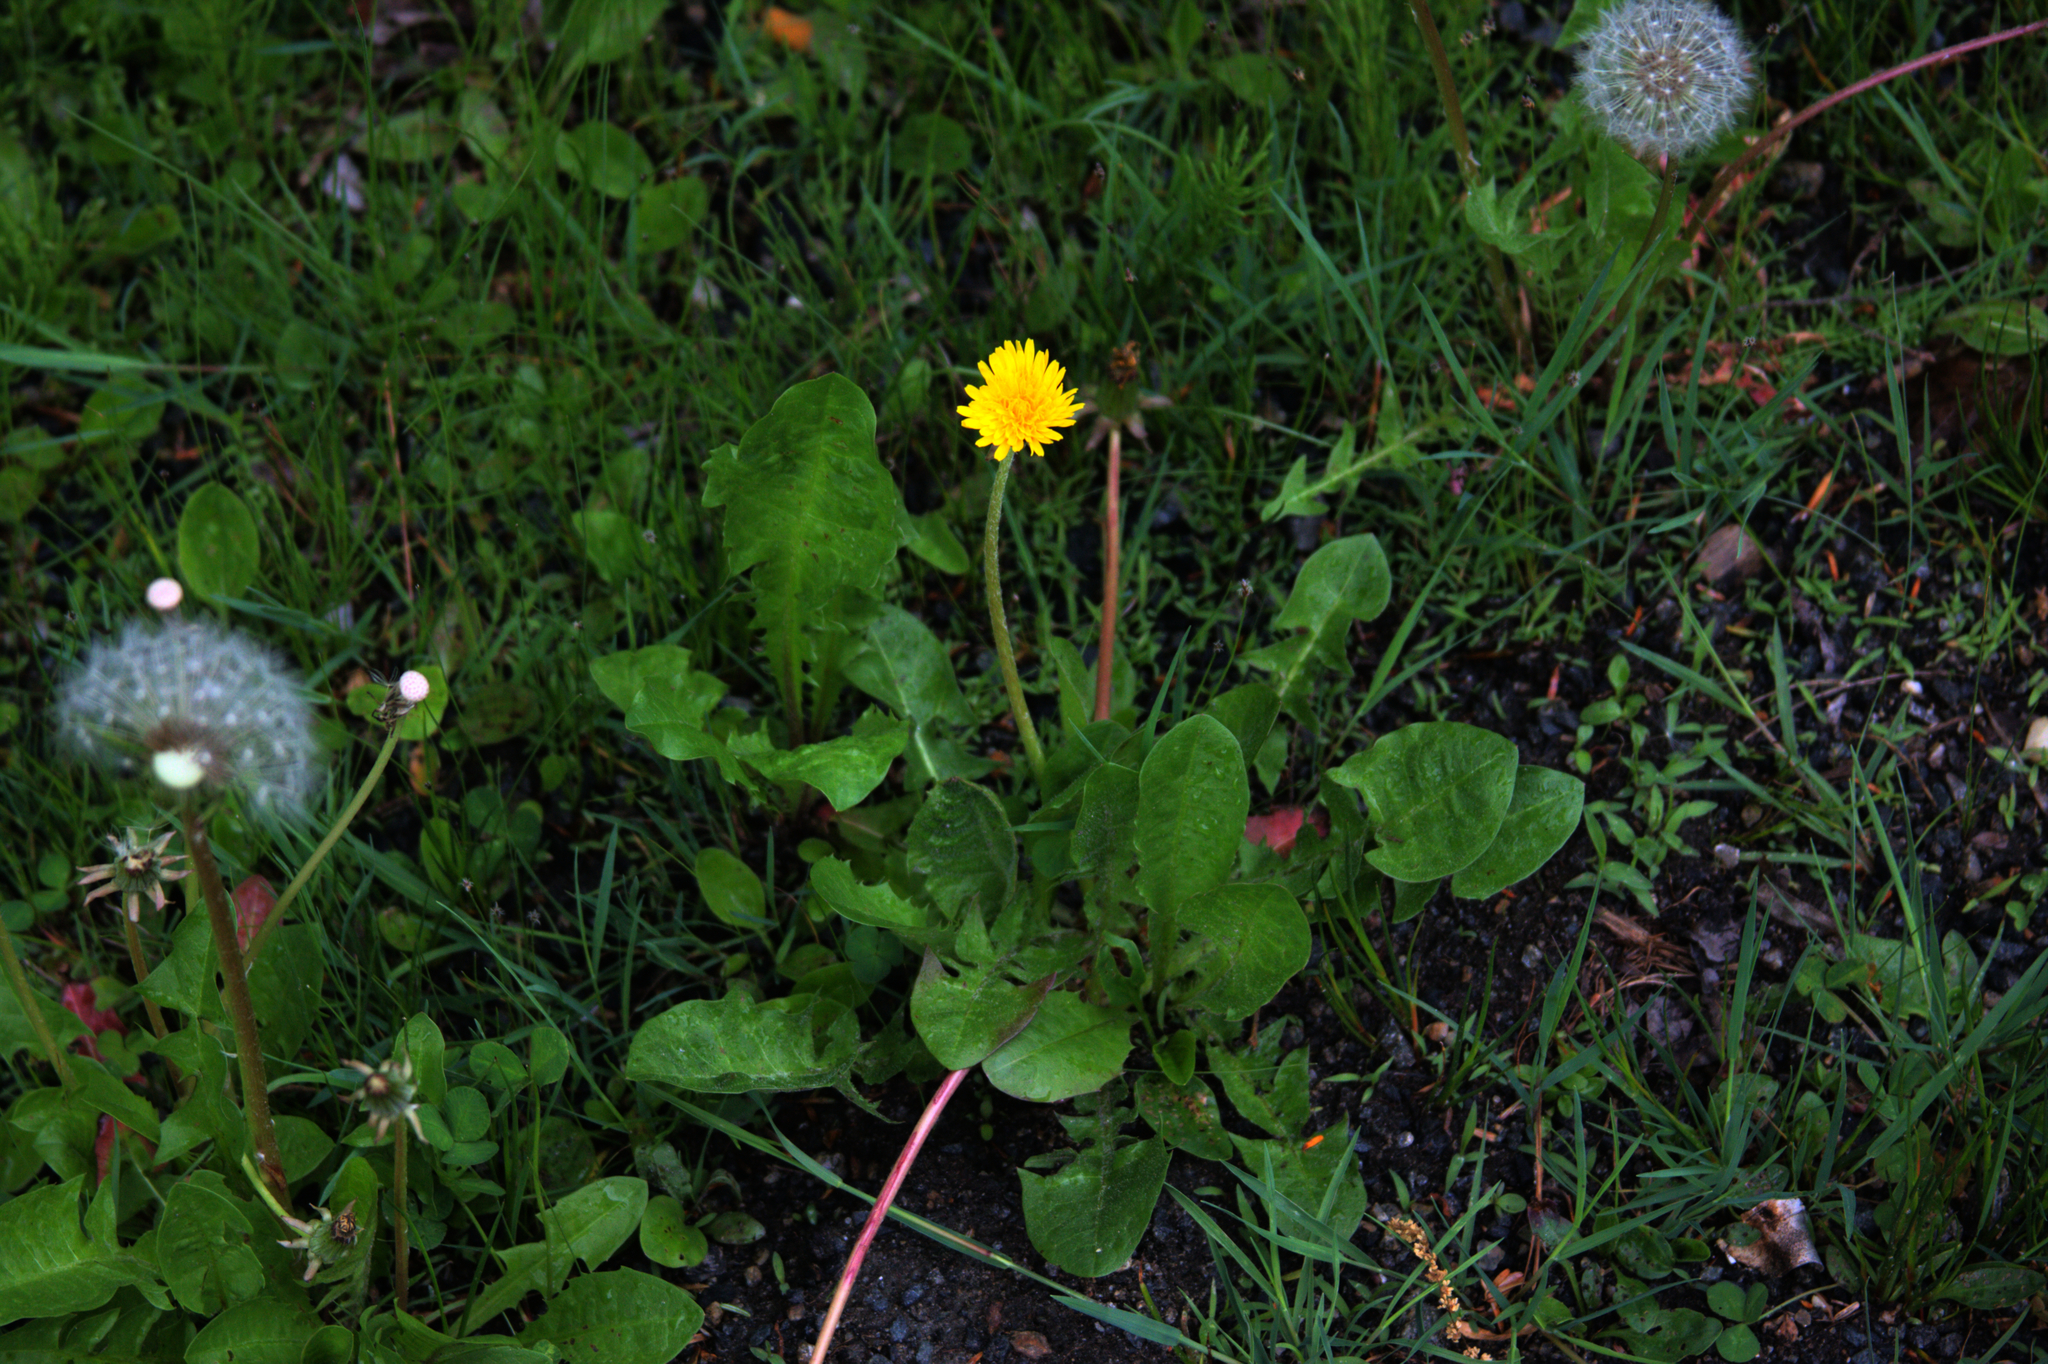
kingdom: Plantae
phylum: Tracheophyta
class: Magnoliopsida
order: Asterales
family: Asteraceae
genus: Taraxacum
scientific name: Taraxacum officinale
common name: Common dandelion
